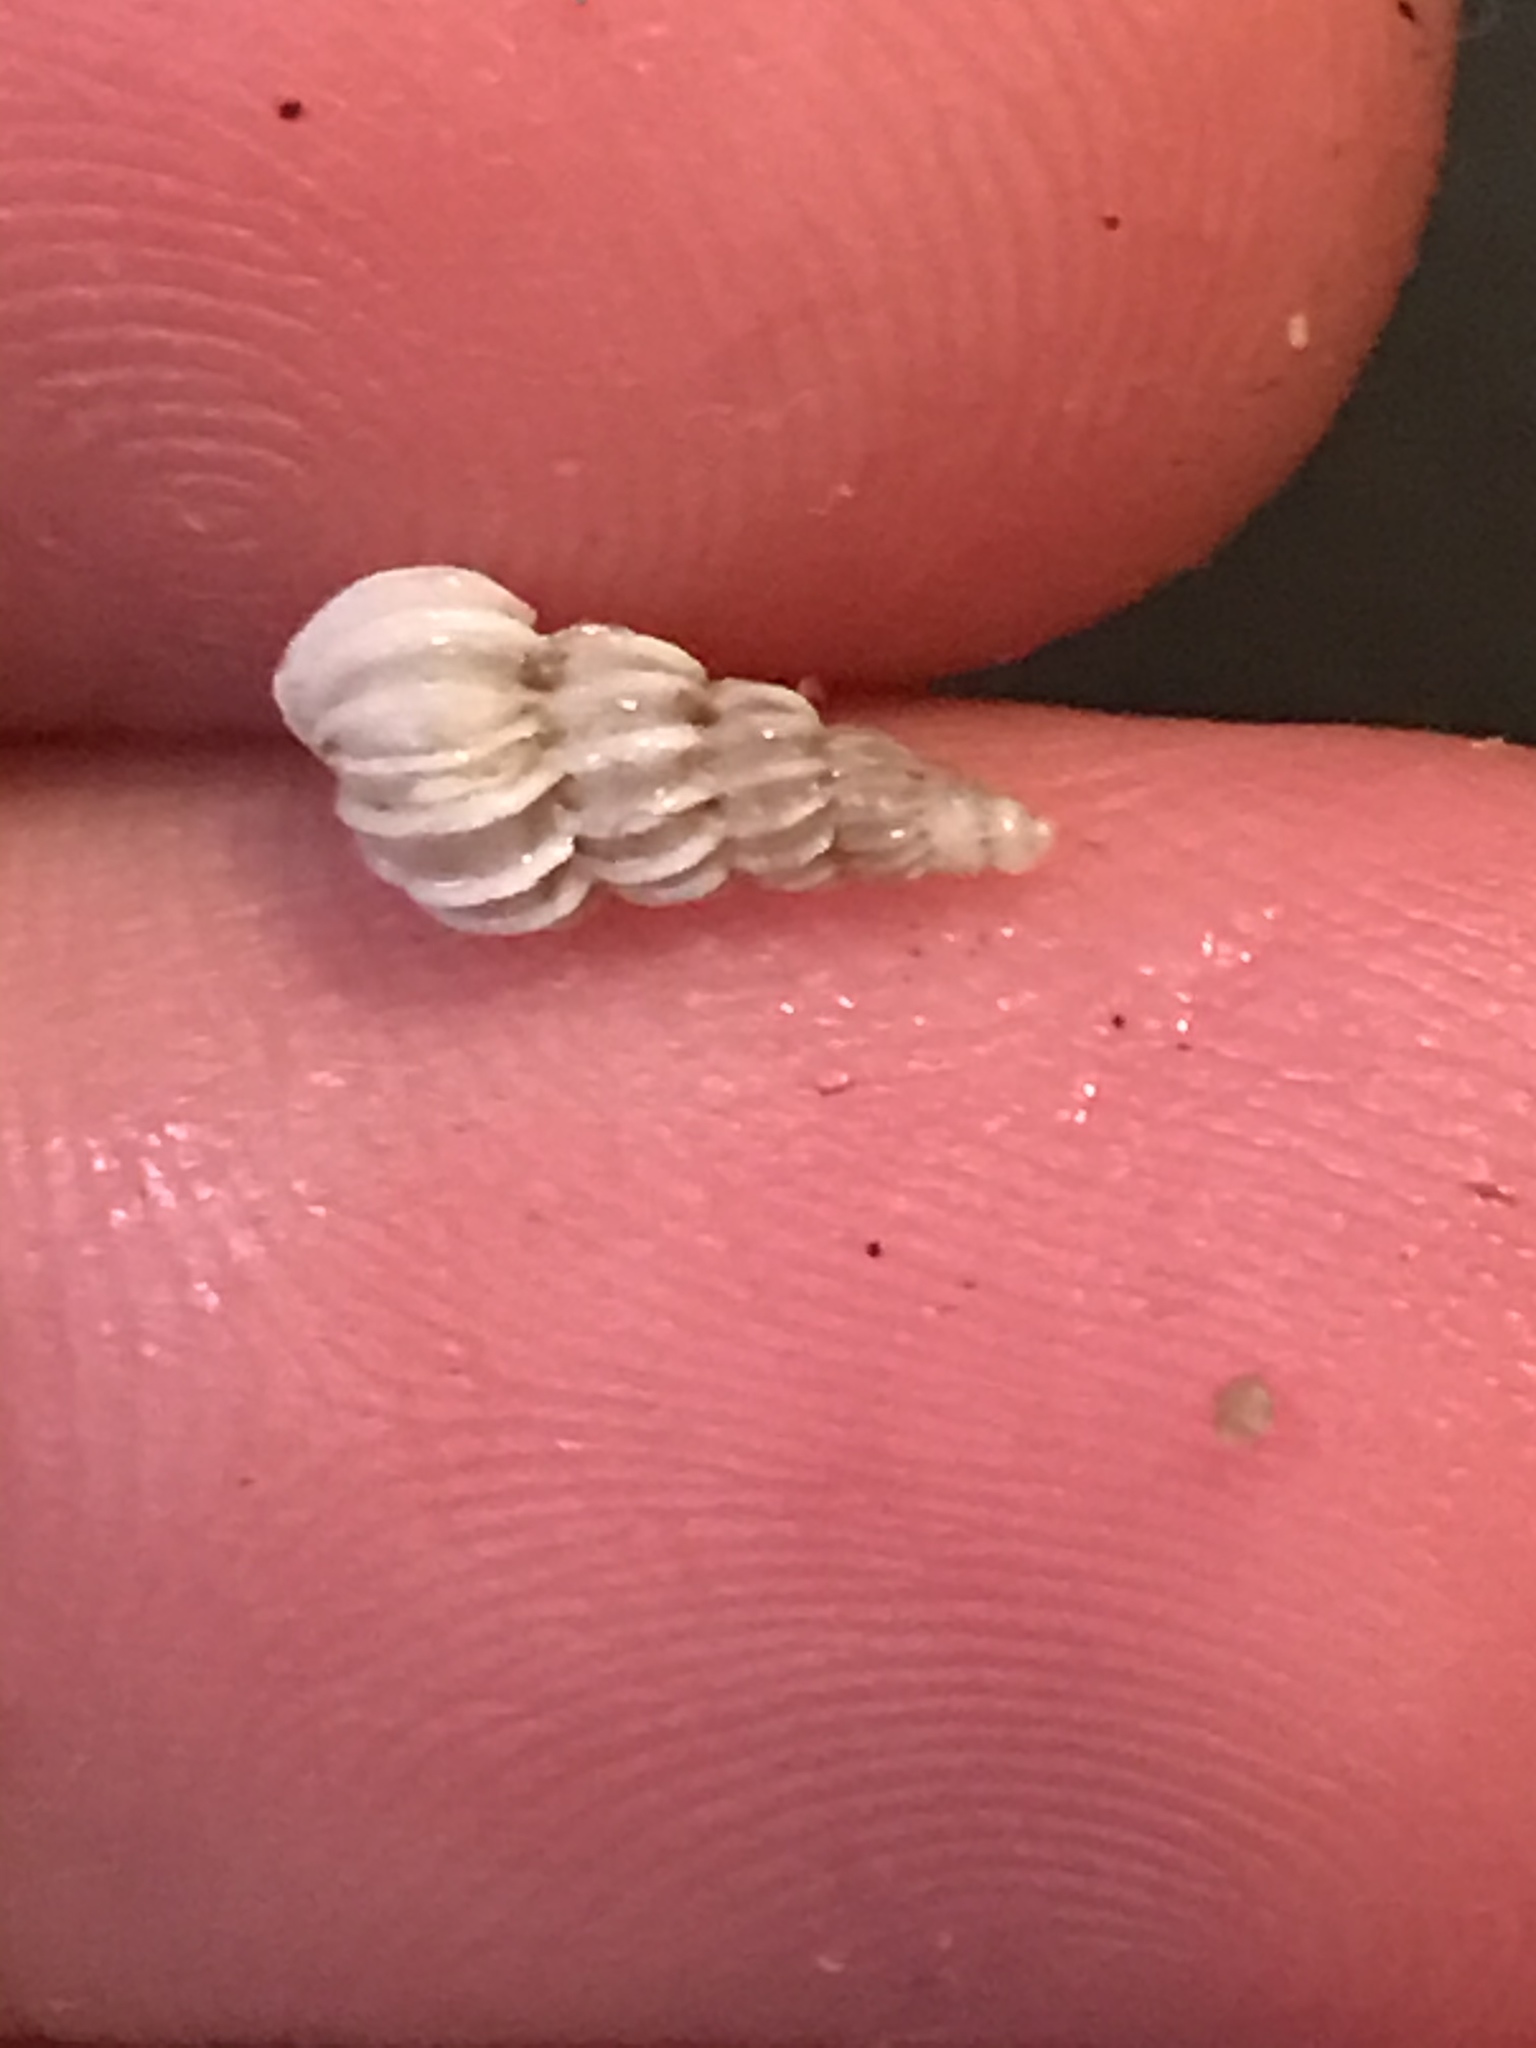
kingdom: Animalia
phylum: Mollusca
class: Gastropoda
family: Epitoniidae
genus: Epitonium
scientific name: Epitonium tinctum
